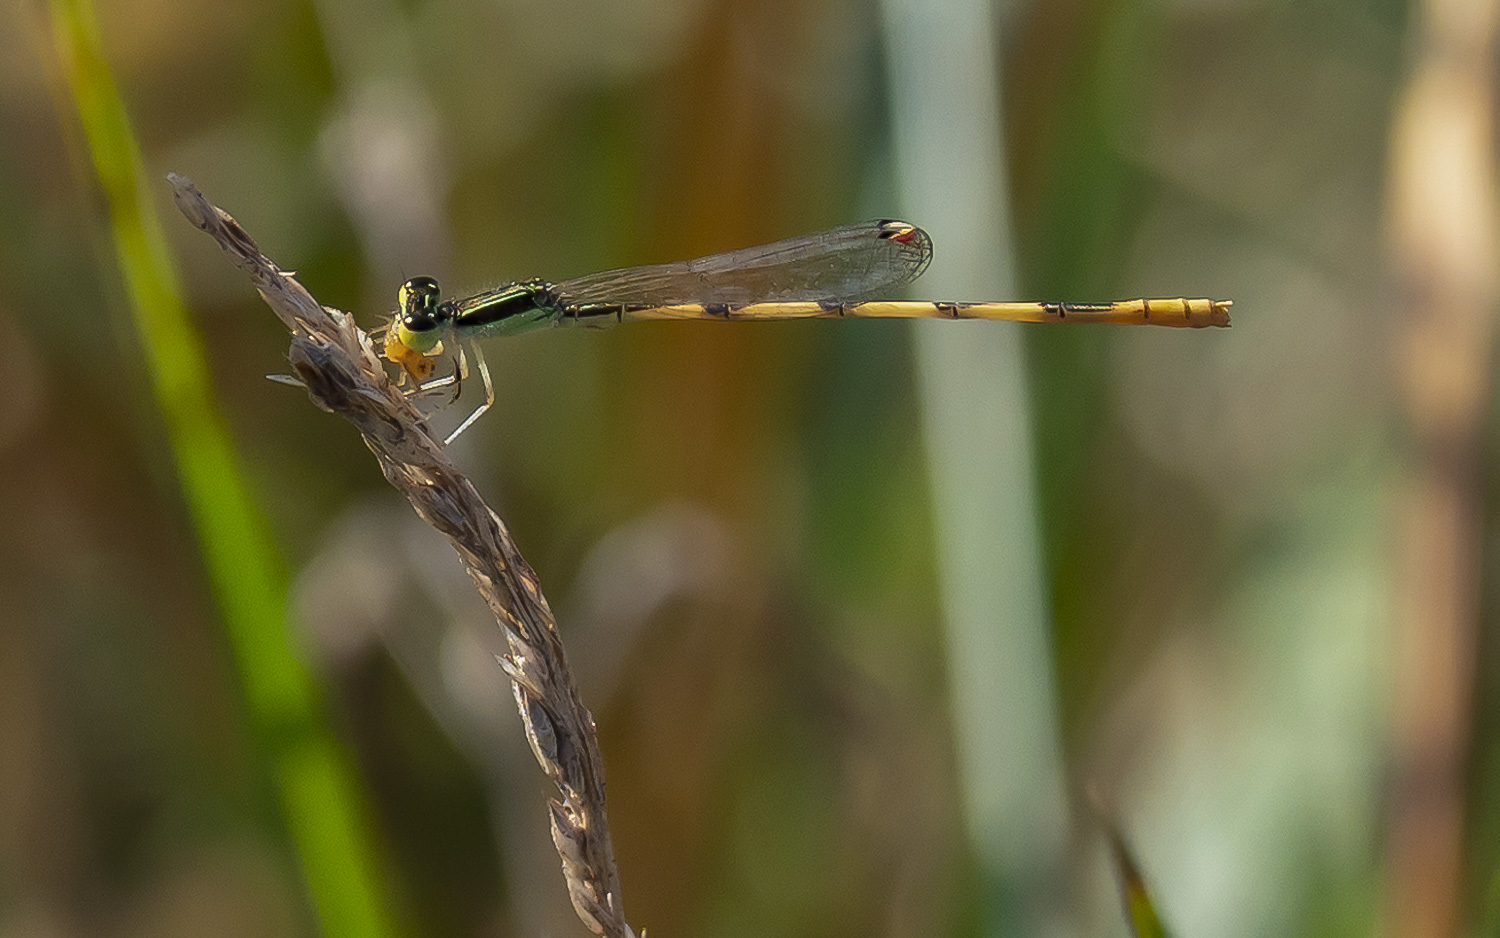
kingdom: Animalia
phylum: Arthropoda
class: Insecta
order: Odonata
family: Coenagrionidae
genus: Ischnura
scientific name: Ischnura hastata
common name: Citrine forktail
